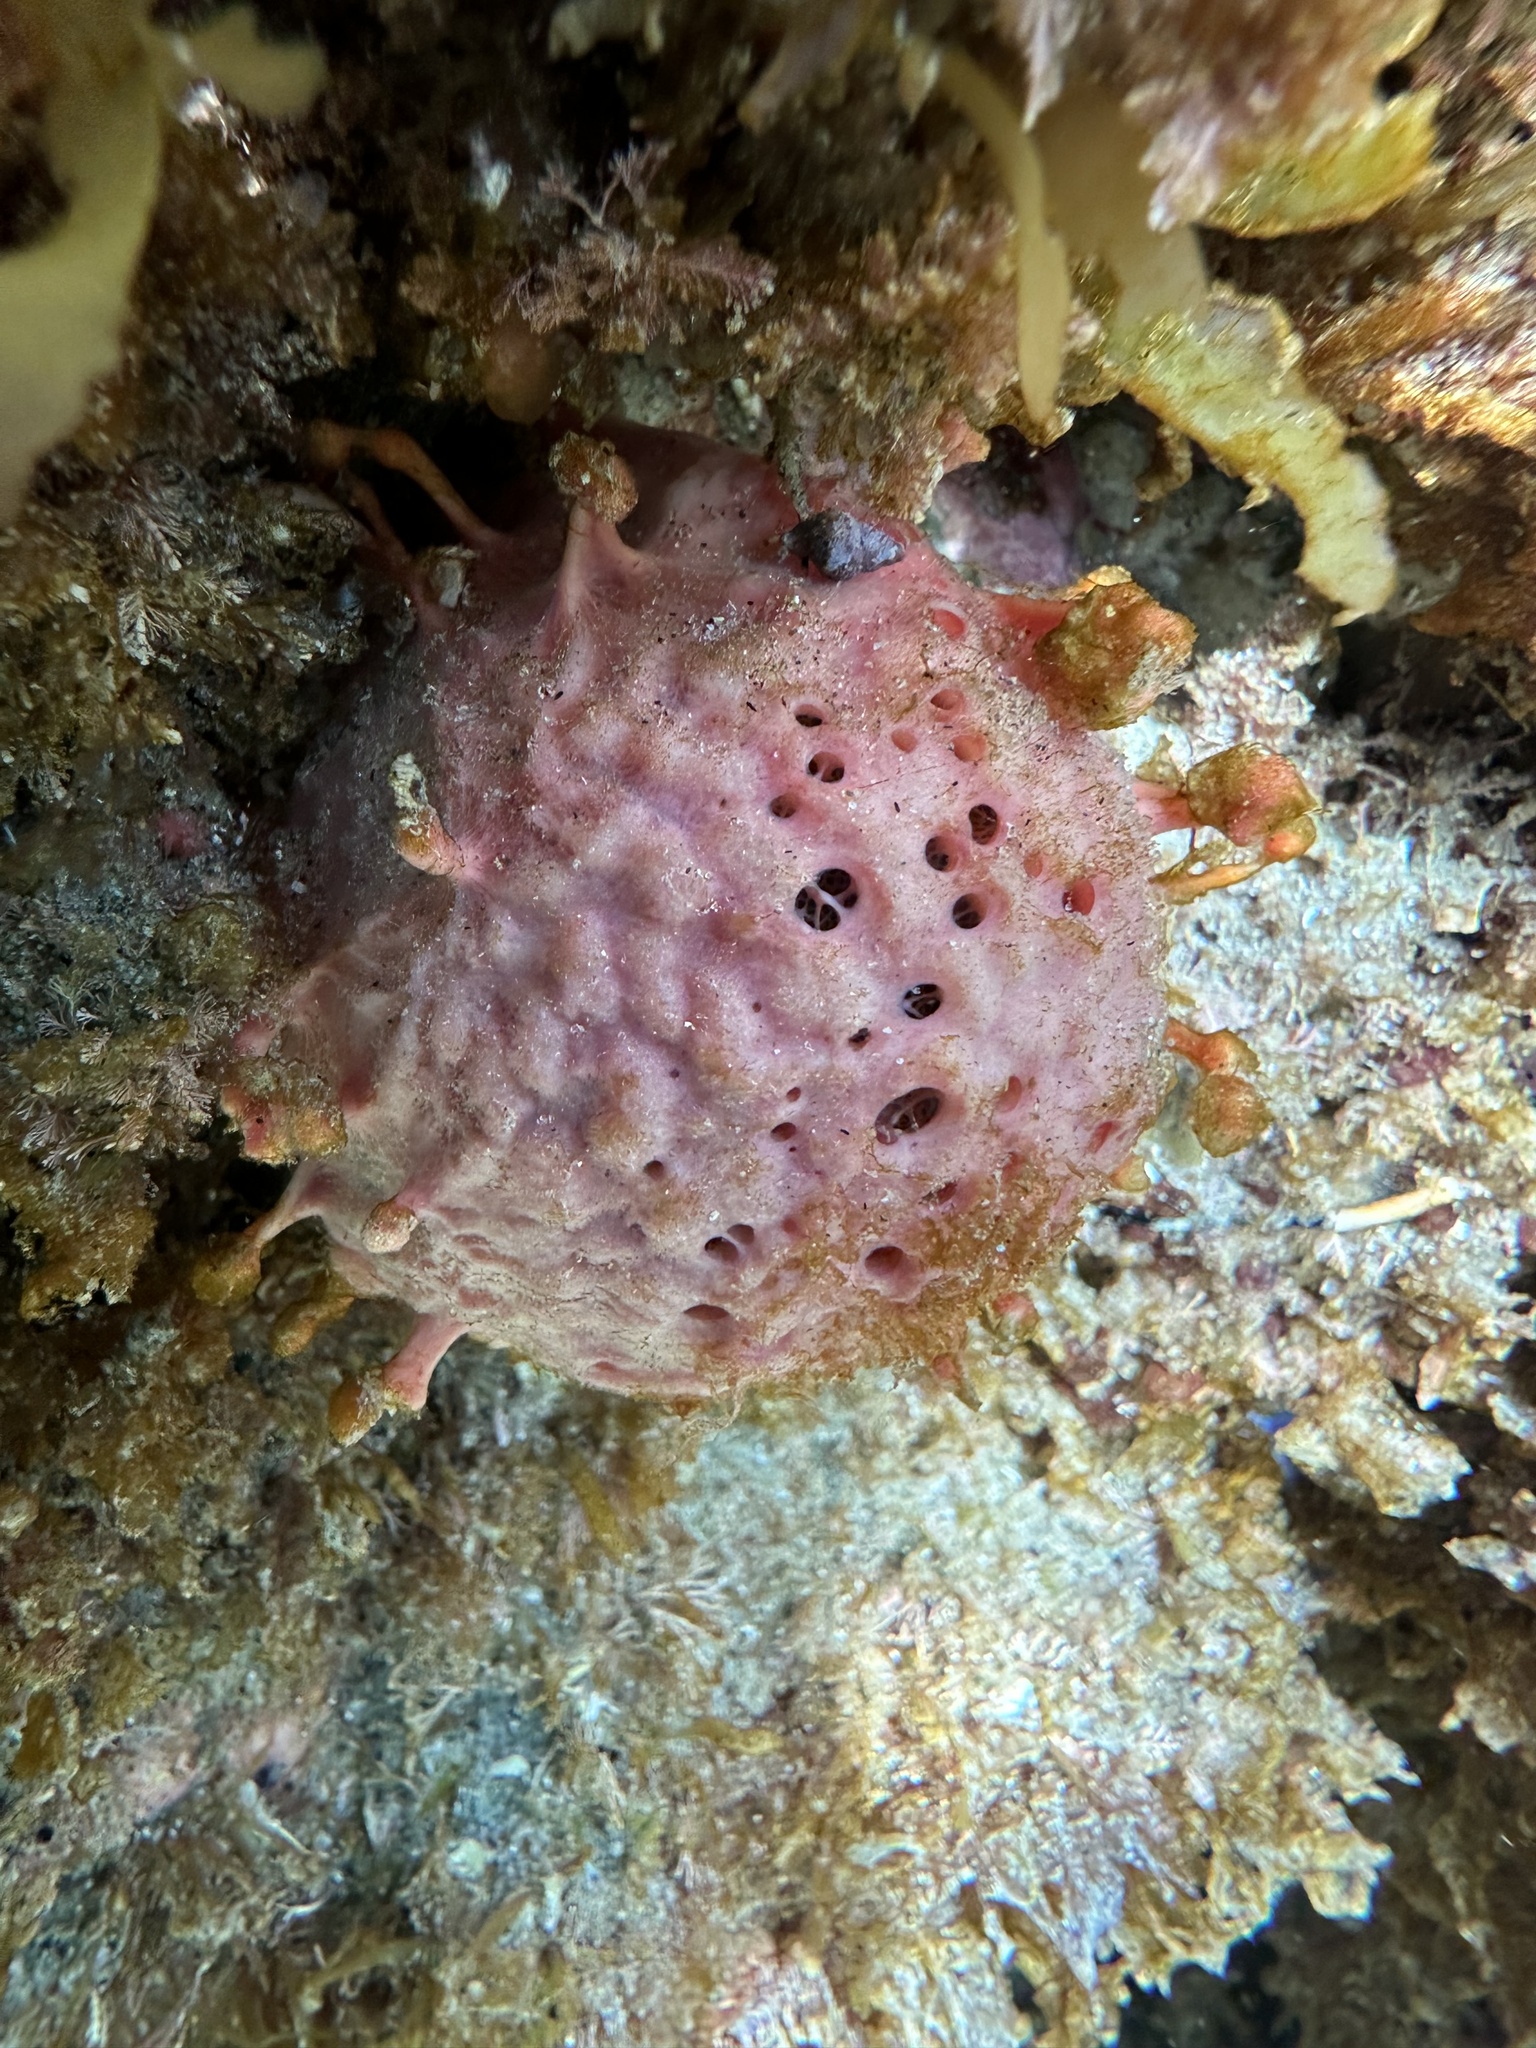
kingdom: Animalia
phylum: Porifera
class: Demospongiae
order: Tethyida
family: Tethyidae
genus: Tethya
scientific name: Tethya bergquistae
